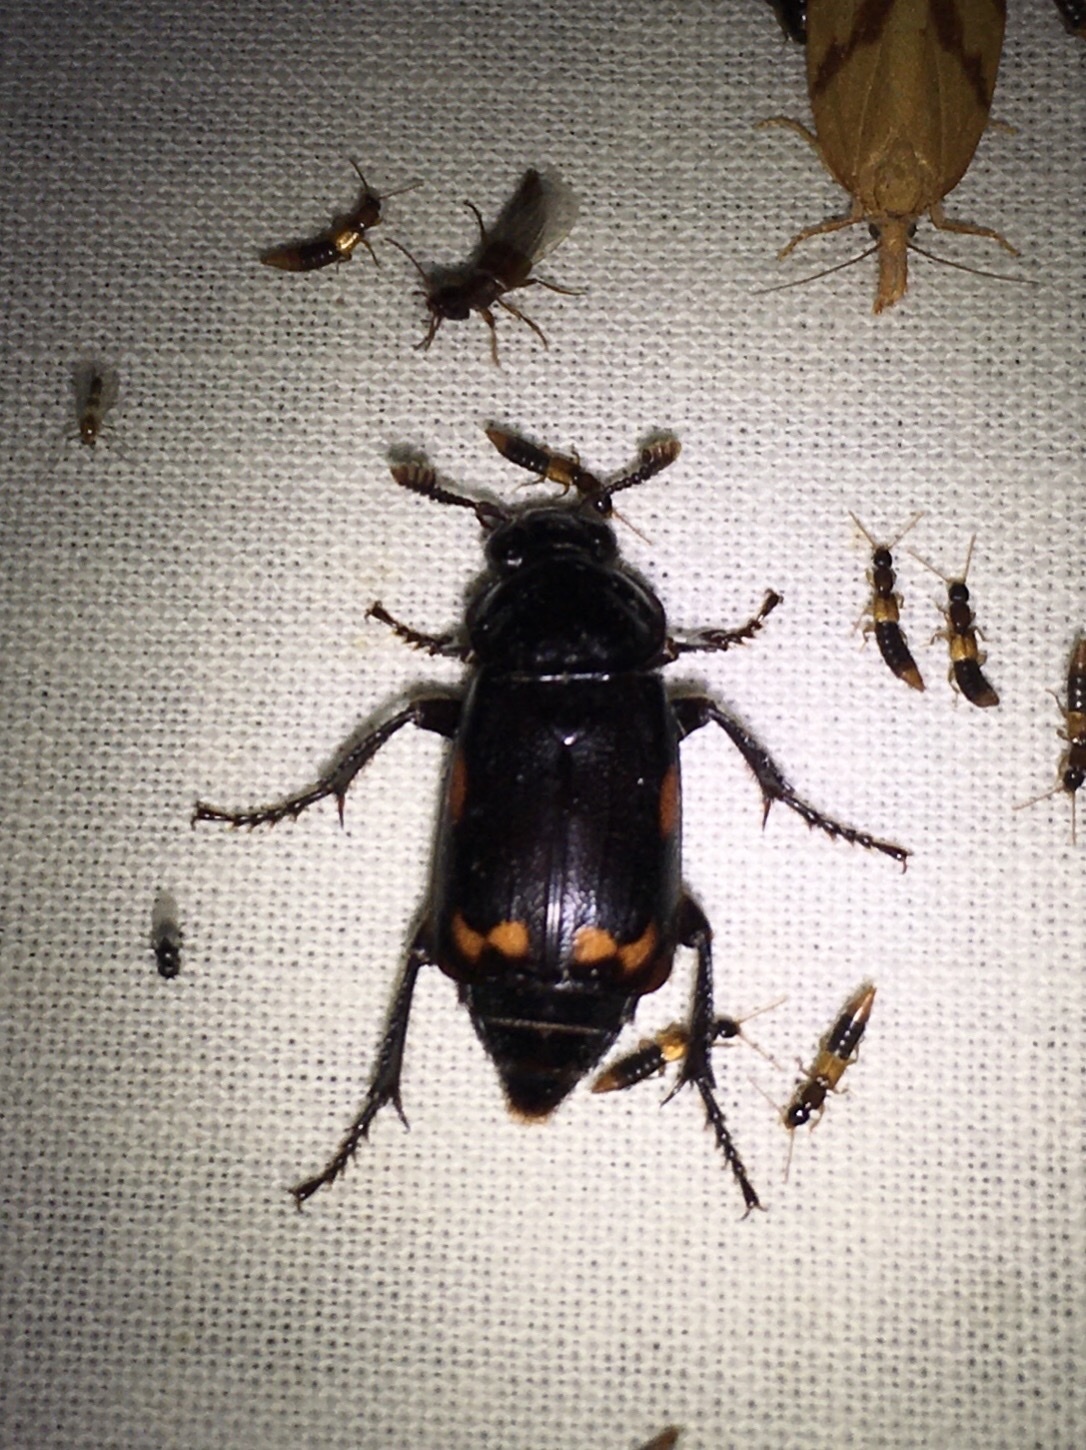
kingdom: Animalia
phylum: Arthropoda
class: Insecta
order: Coleoptera
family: Staphylinidae
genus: Nicrophorus
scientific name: Nicrophorus pustulatus
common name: Pustulated carrion beetle
